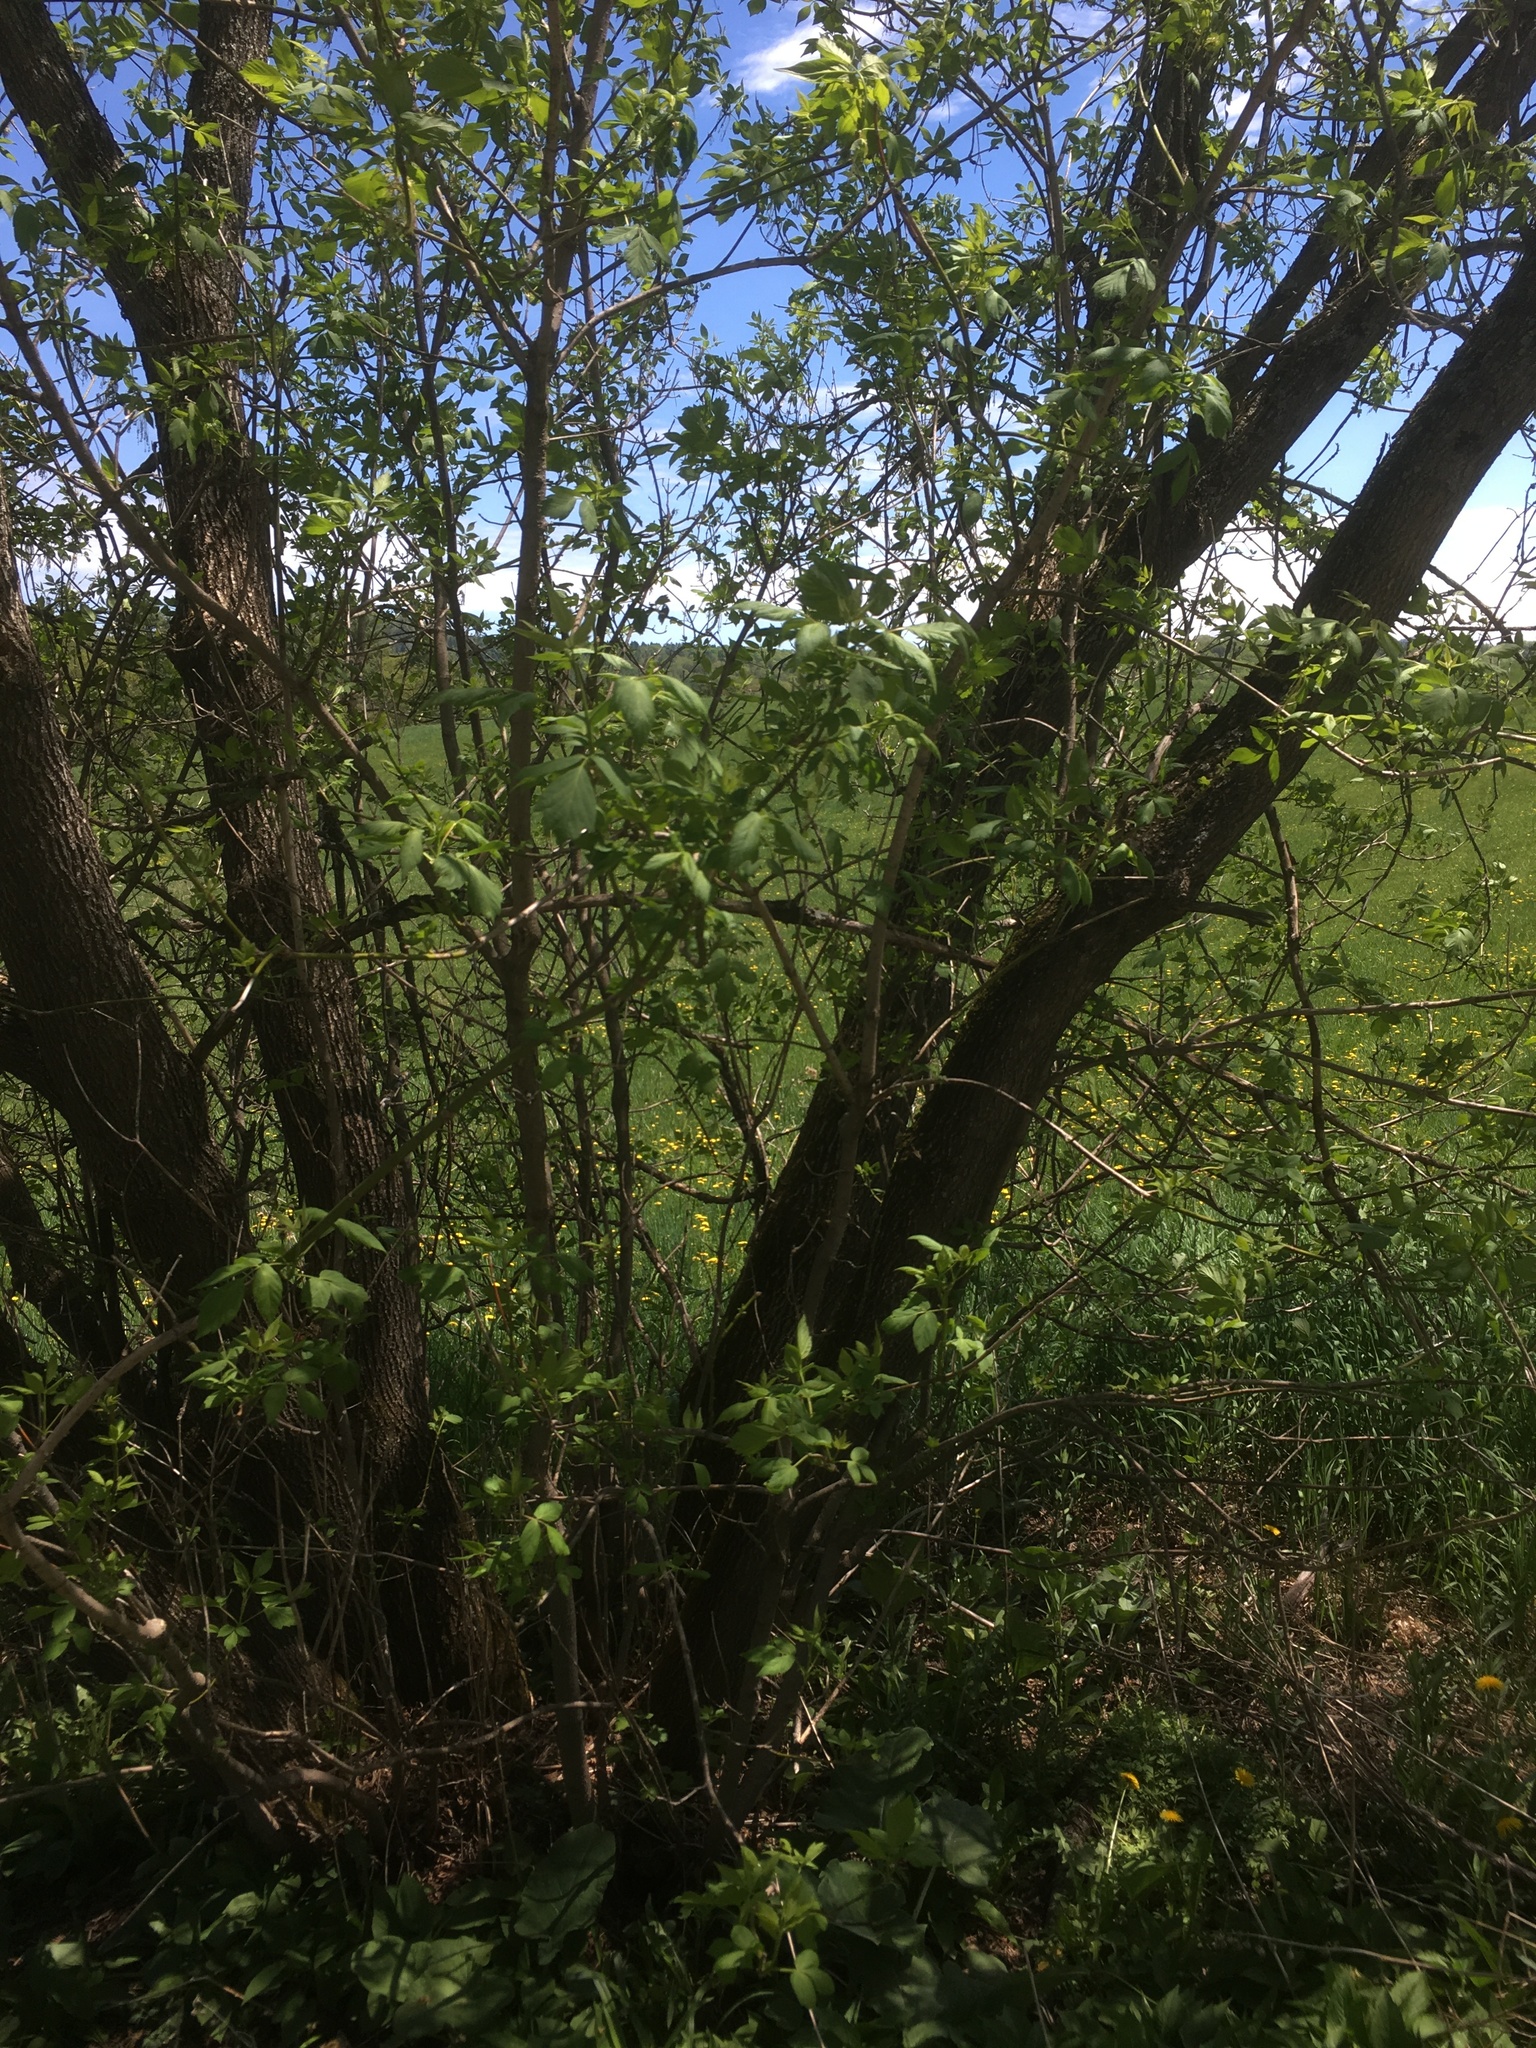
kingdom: Plantae
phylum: Tracheophyta
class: Magnoliopsida
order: Sapindales
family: Sapindaceae
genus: Acer
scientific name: Acer negundo
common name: Ashleaf maple
